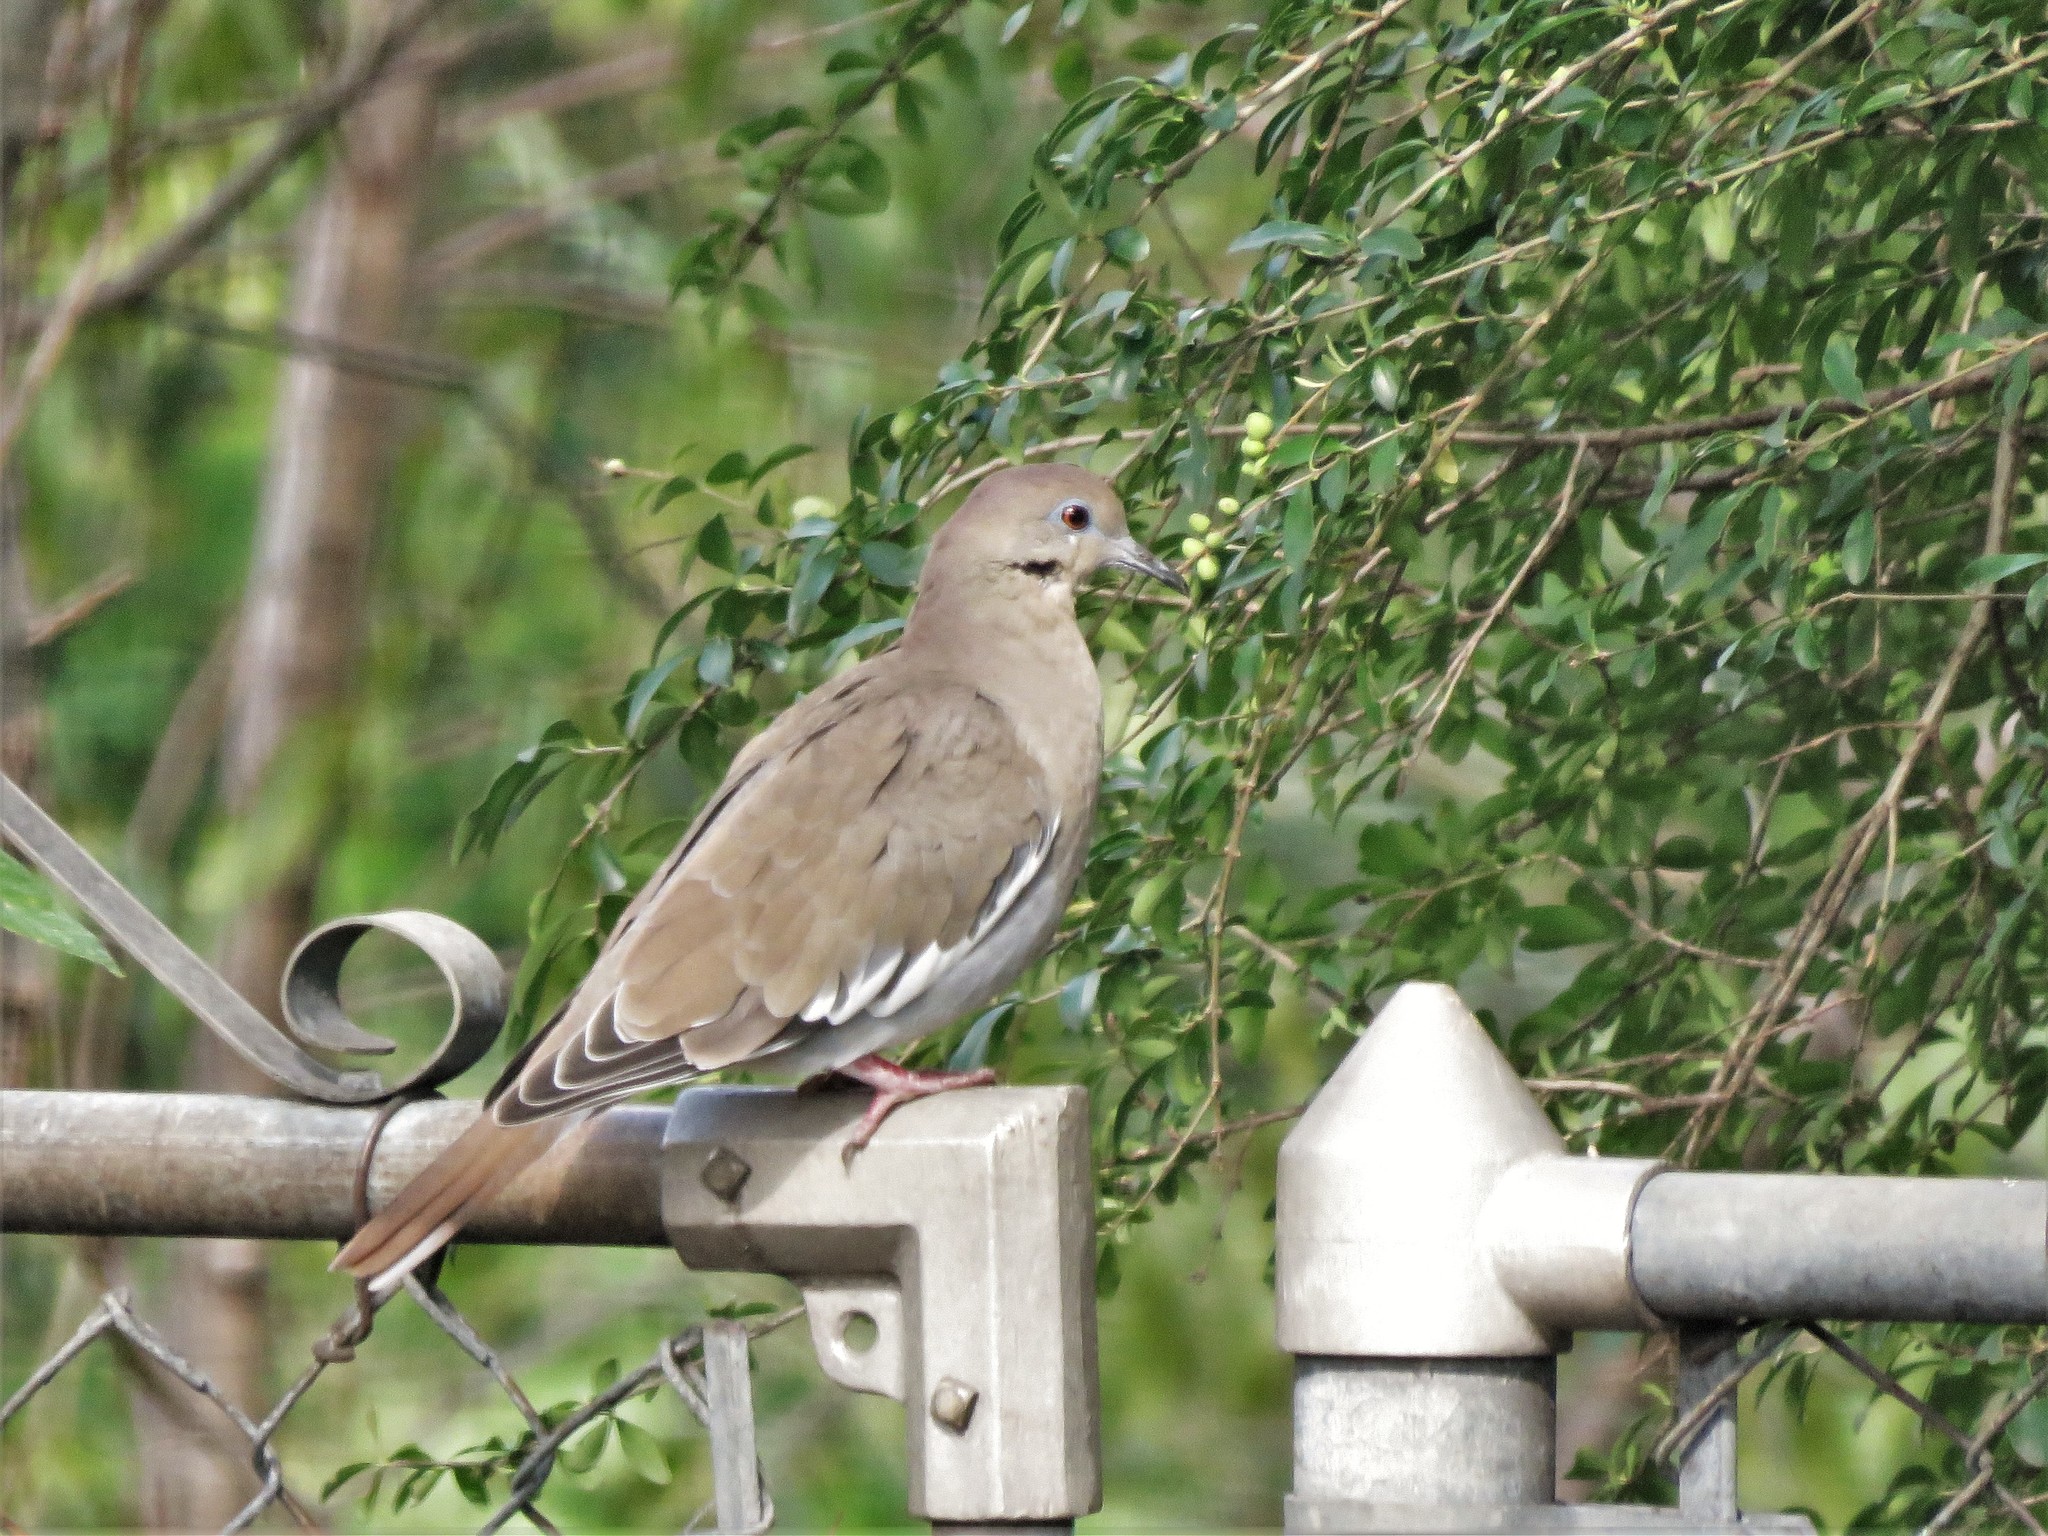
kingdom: Animalia
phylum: Chordata
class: Aves
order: Columbiformes
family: Columbidae
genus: Zenaida
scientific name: Zenaida asiatica
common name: White-winged dove
